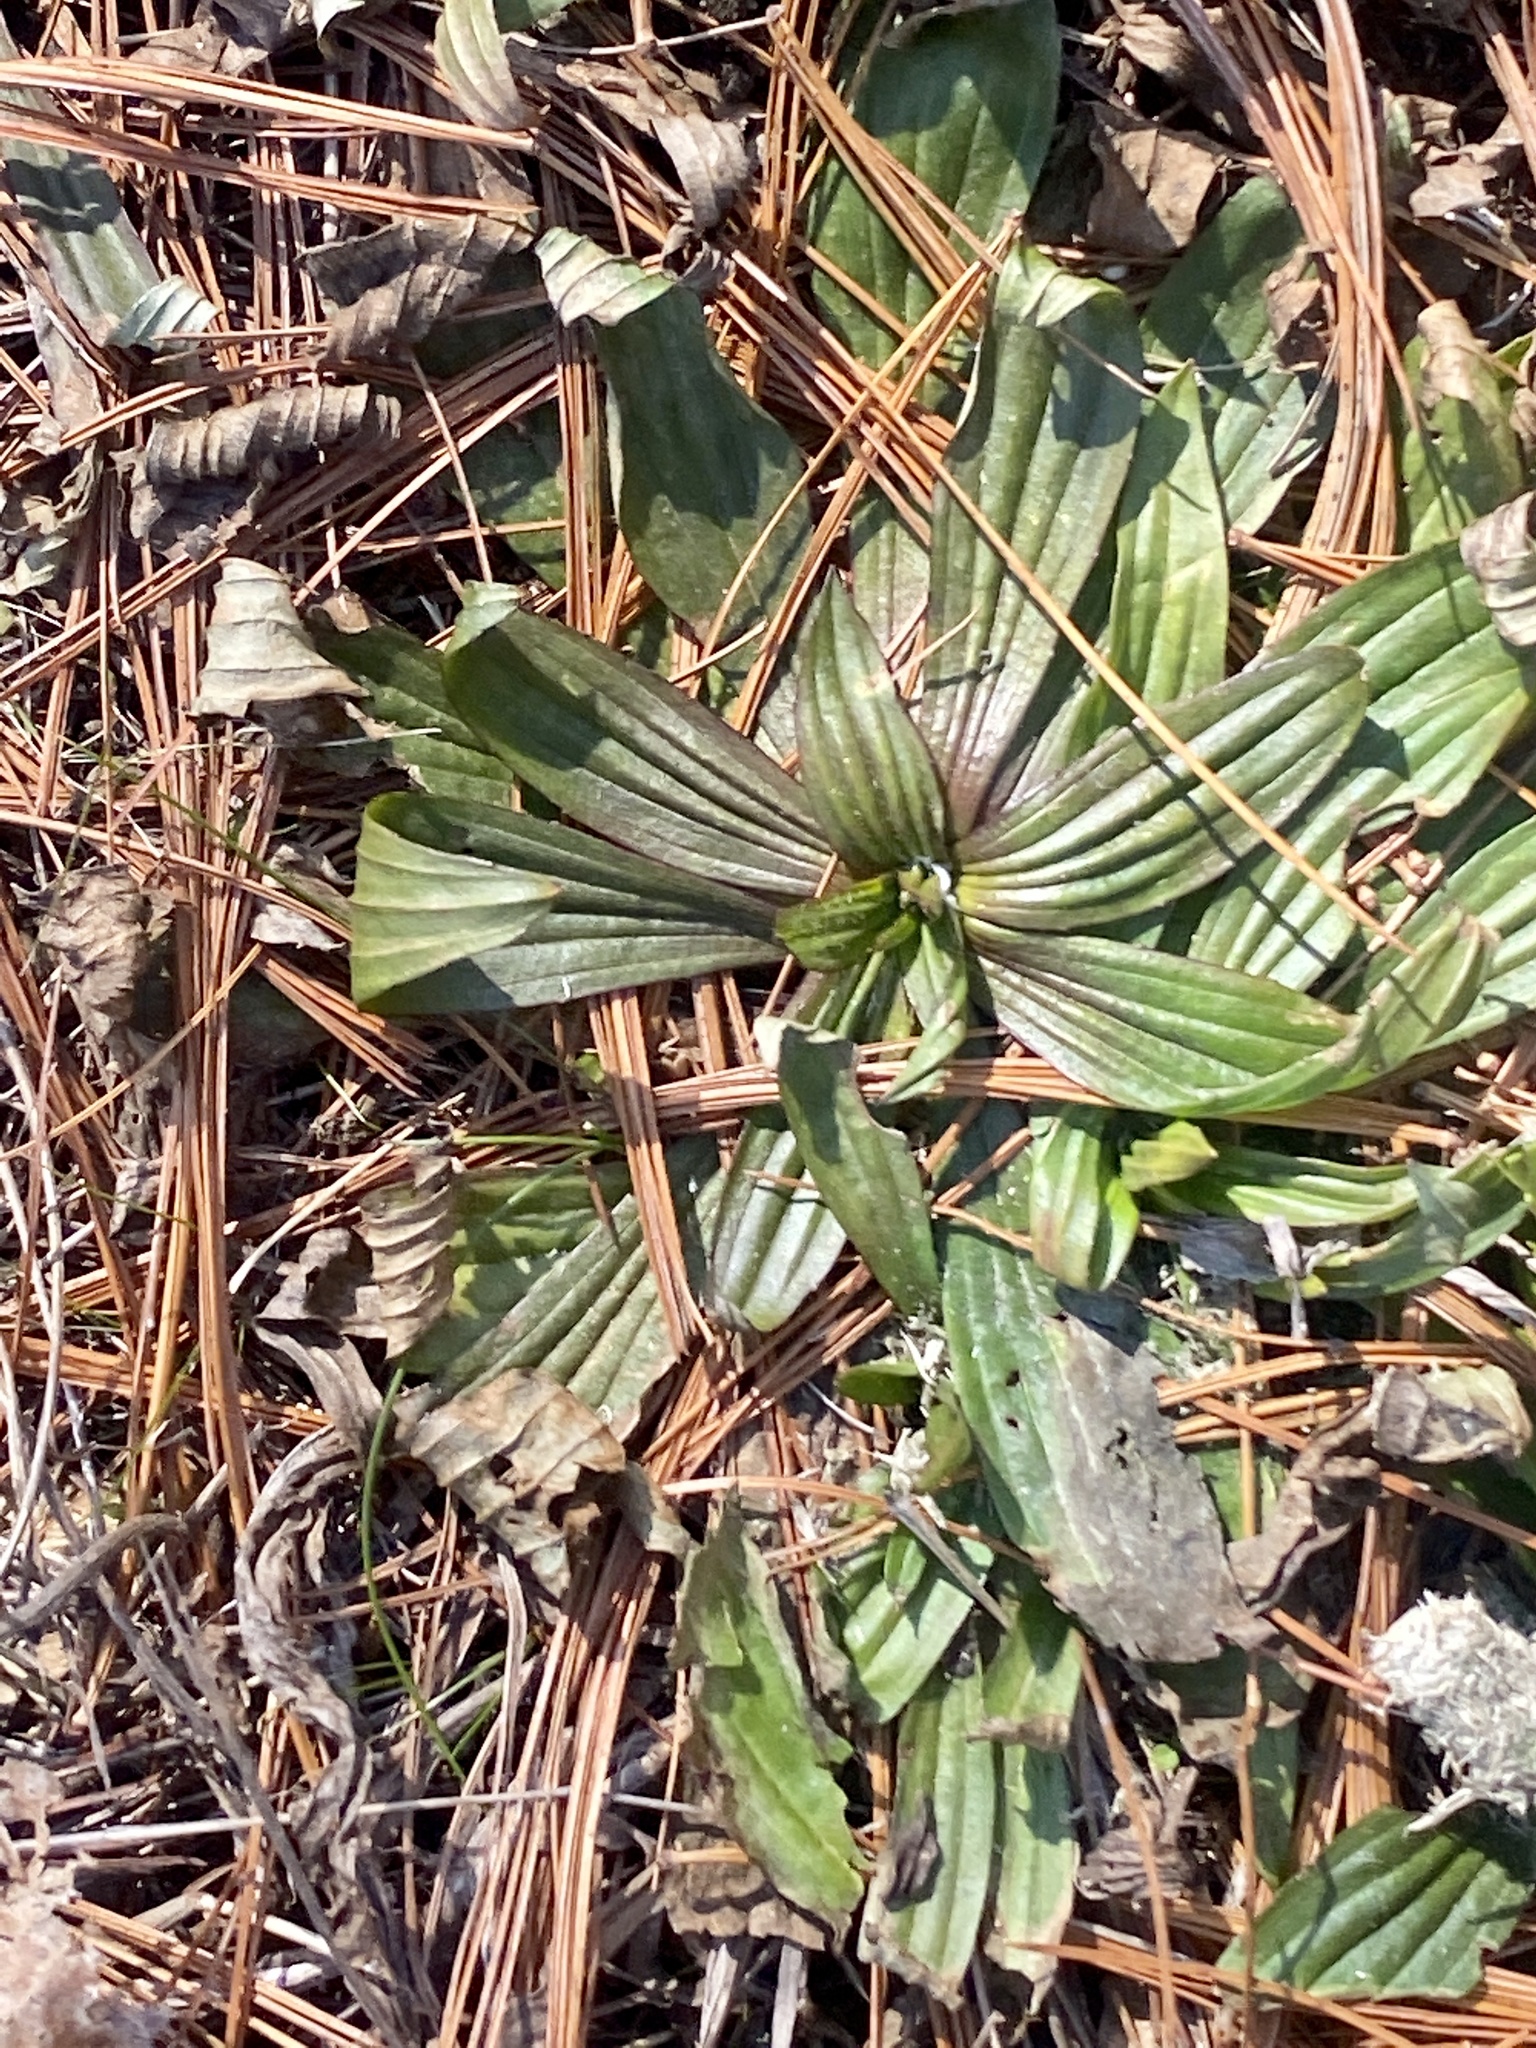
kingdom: Plantae
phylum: Tracheophyta
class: Magnoliopsida
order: Lamiales
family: Plantaginaceae
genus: Plantago
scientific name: Plantago lanceolata
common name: Ribwort plantain
